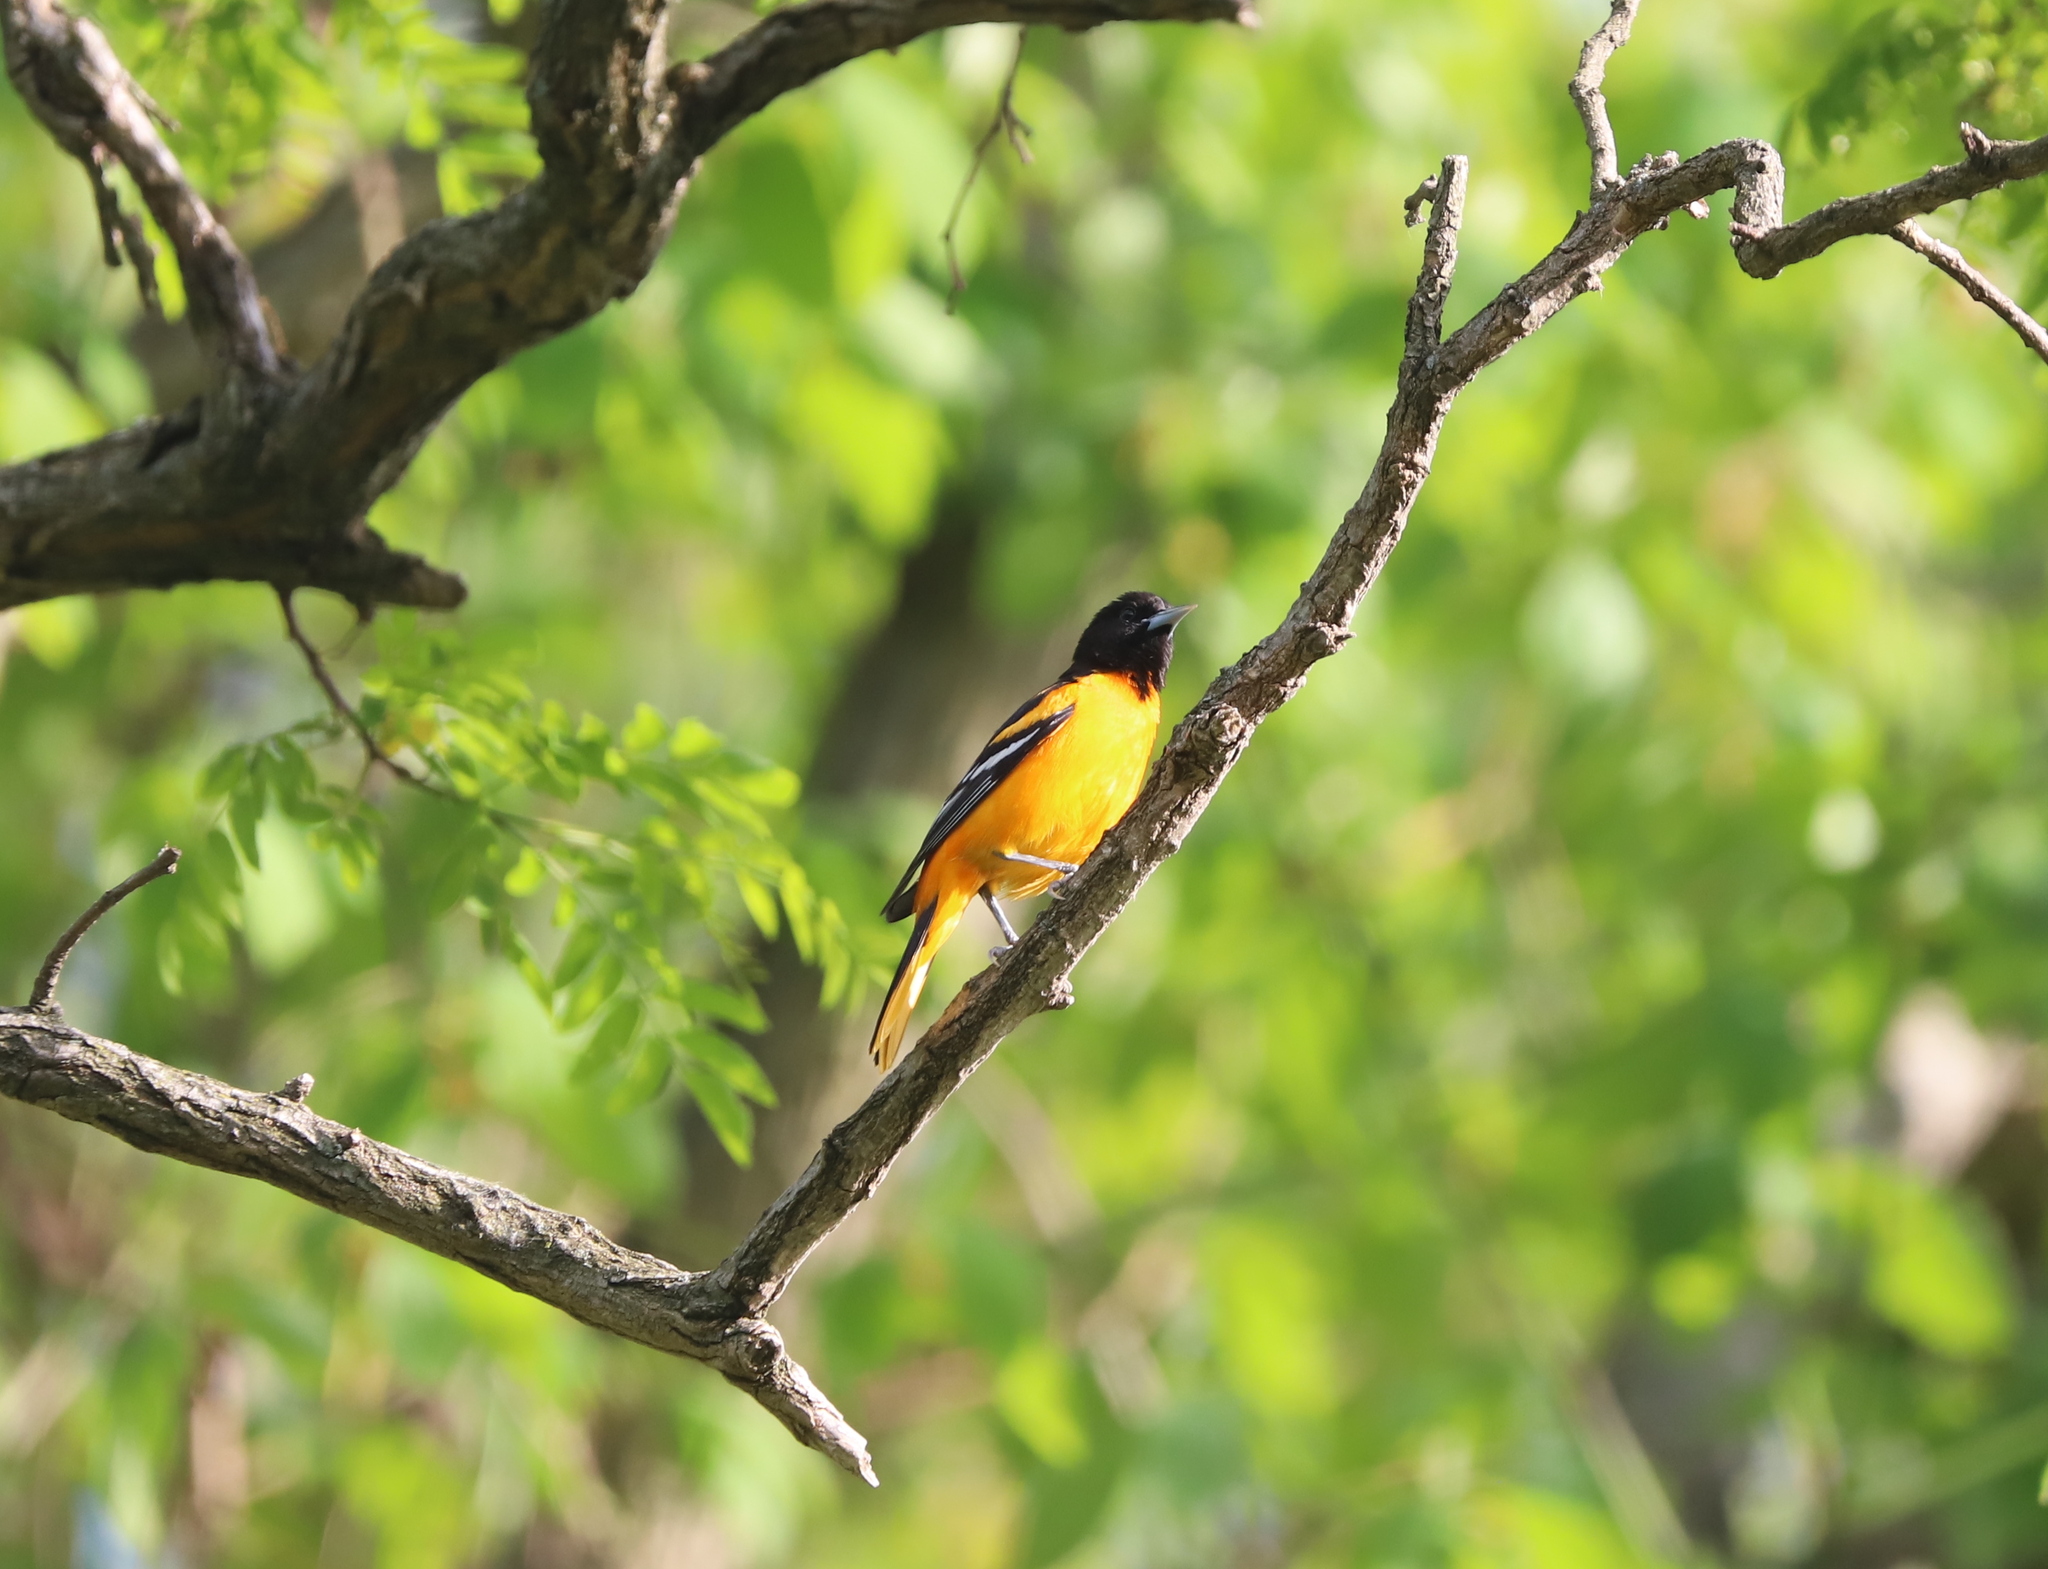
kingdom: Animalia
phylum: Chordata
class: Aves
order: Passeriformes
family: Icteridae
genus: Icterus
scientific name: Icterus galbula
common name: Baltimore oriole
